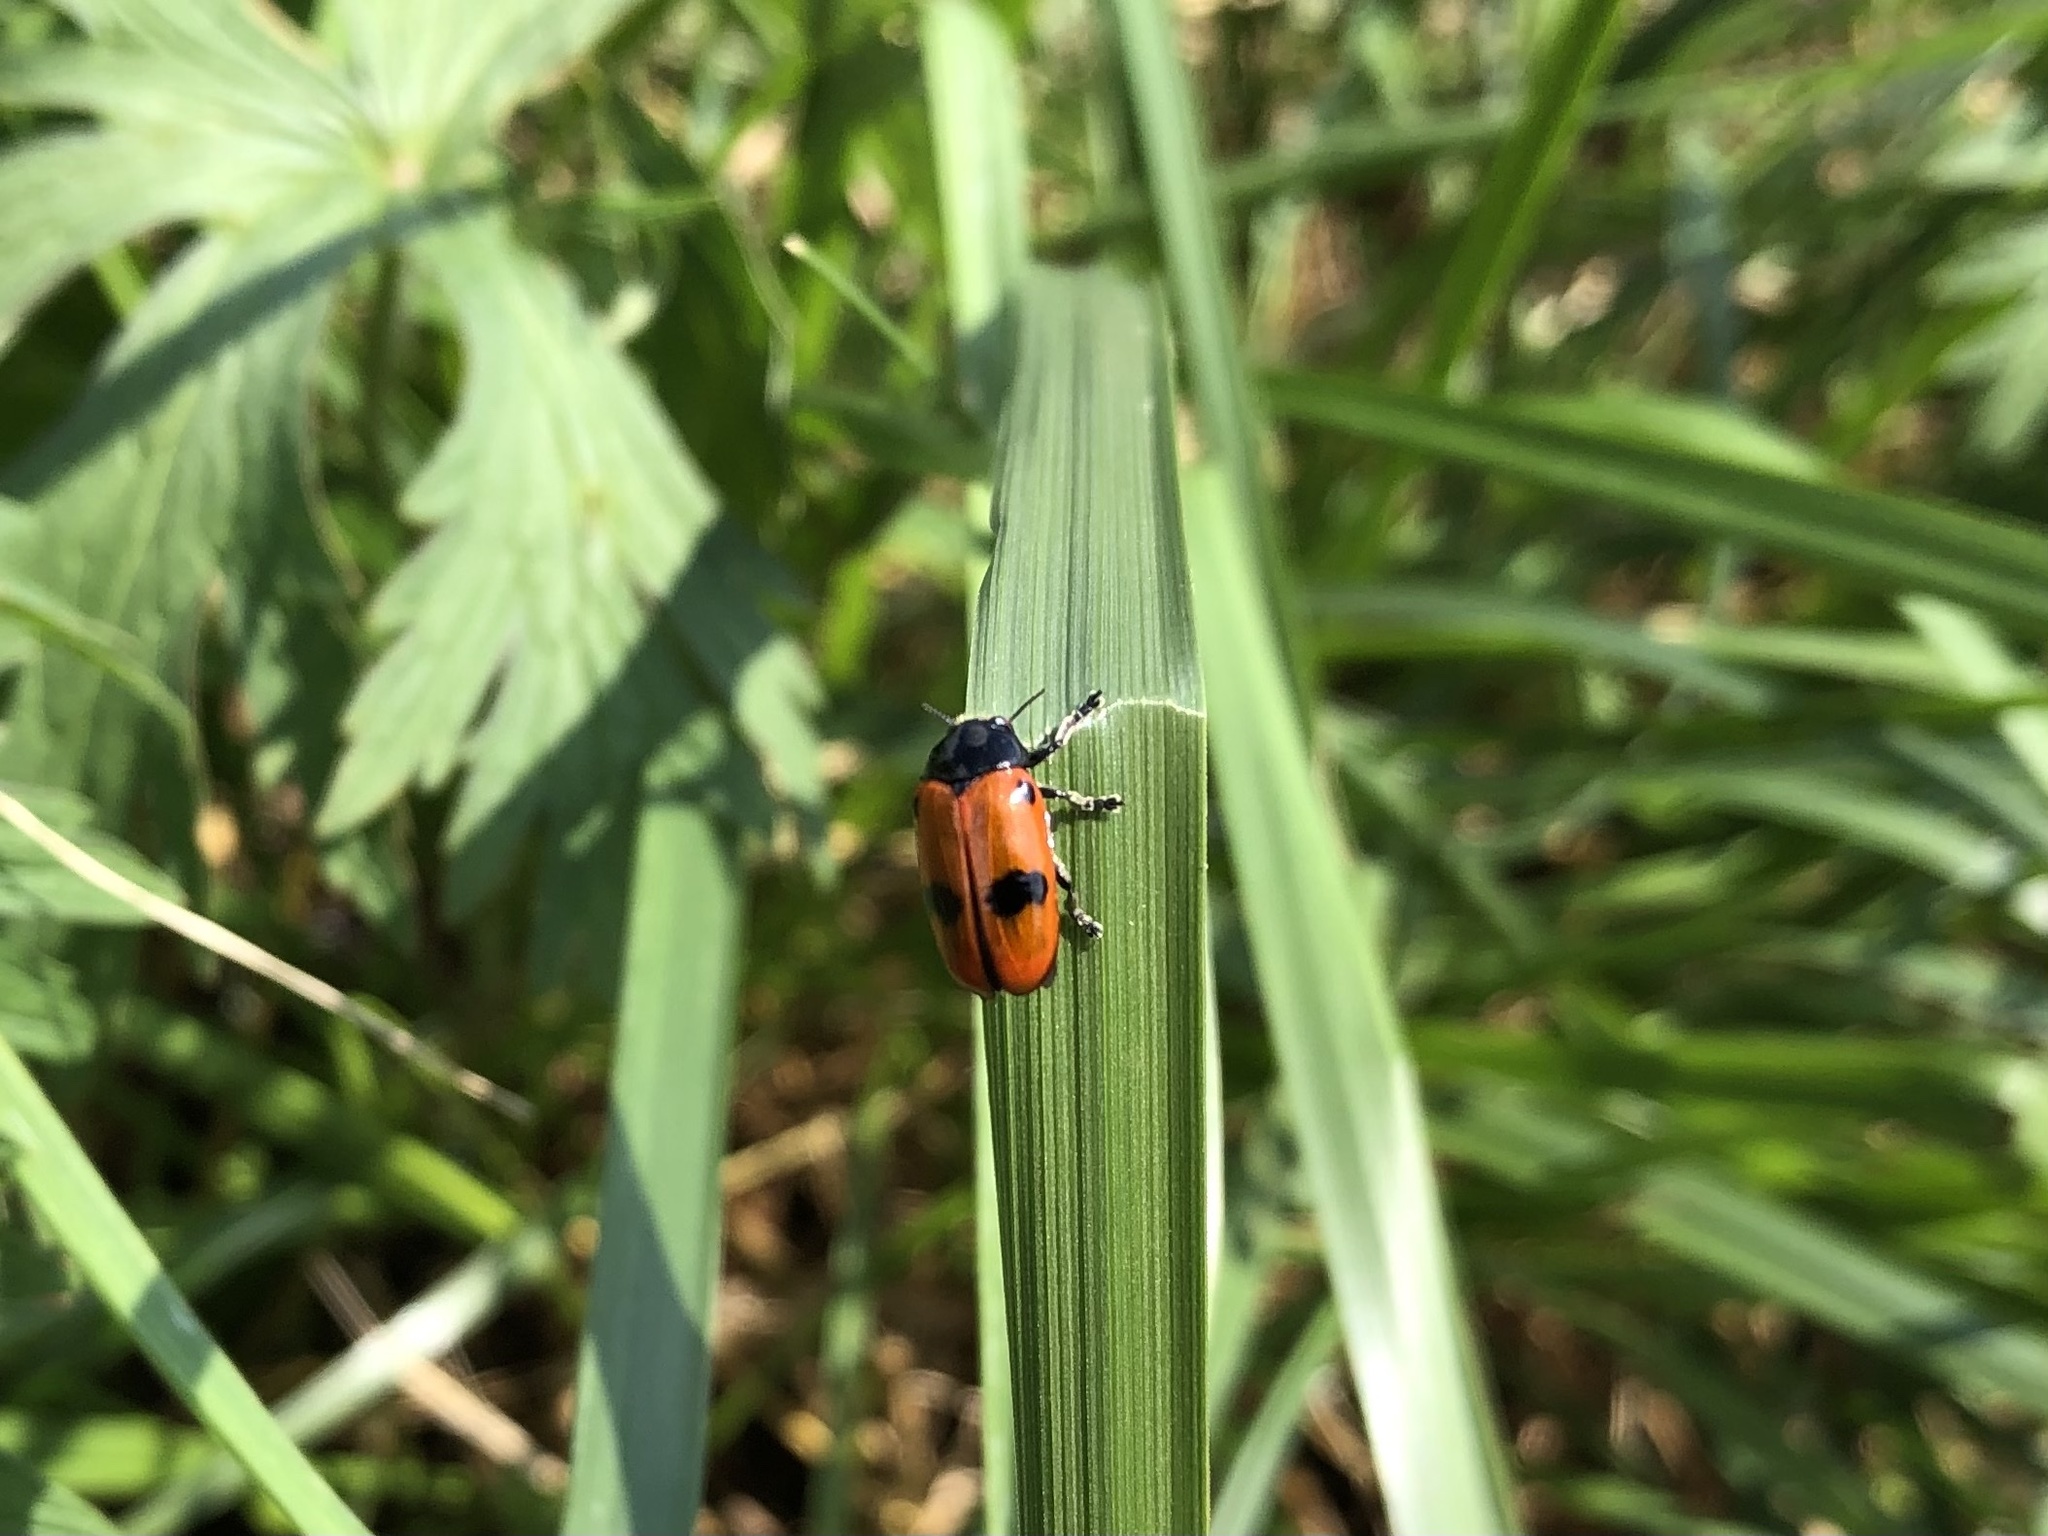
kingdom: Animalia
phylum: Arthropoda
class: Insecta
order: Coleoptera
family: Chrysomelidae
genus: Clytra
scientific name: Clytra laeviuscula
